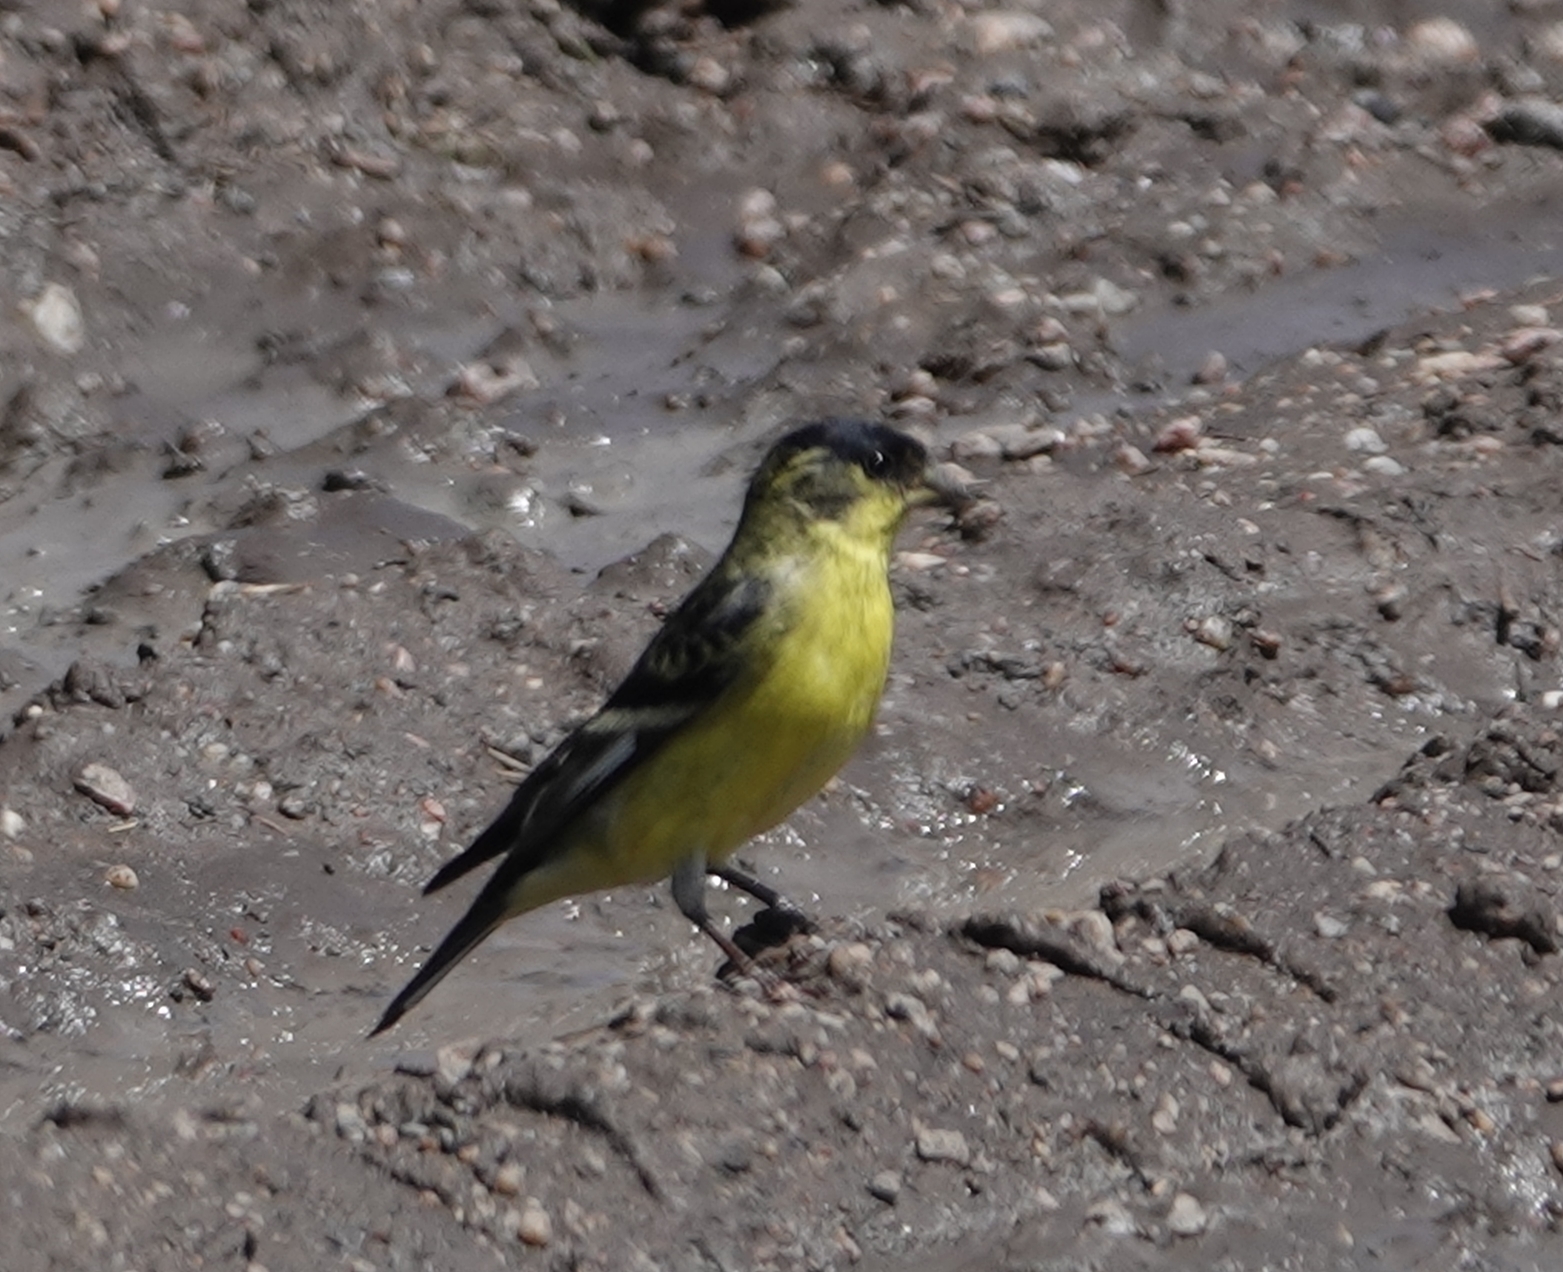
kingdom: Animalia
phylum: Chordata
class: Aves
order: Passeriformes
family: Fringillidae
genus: Spinus
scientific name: Spinus psaltria
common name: Lesser goldfinch
